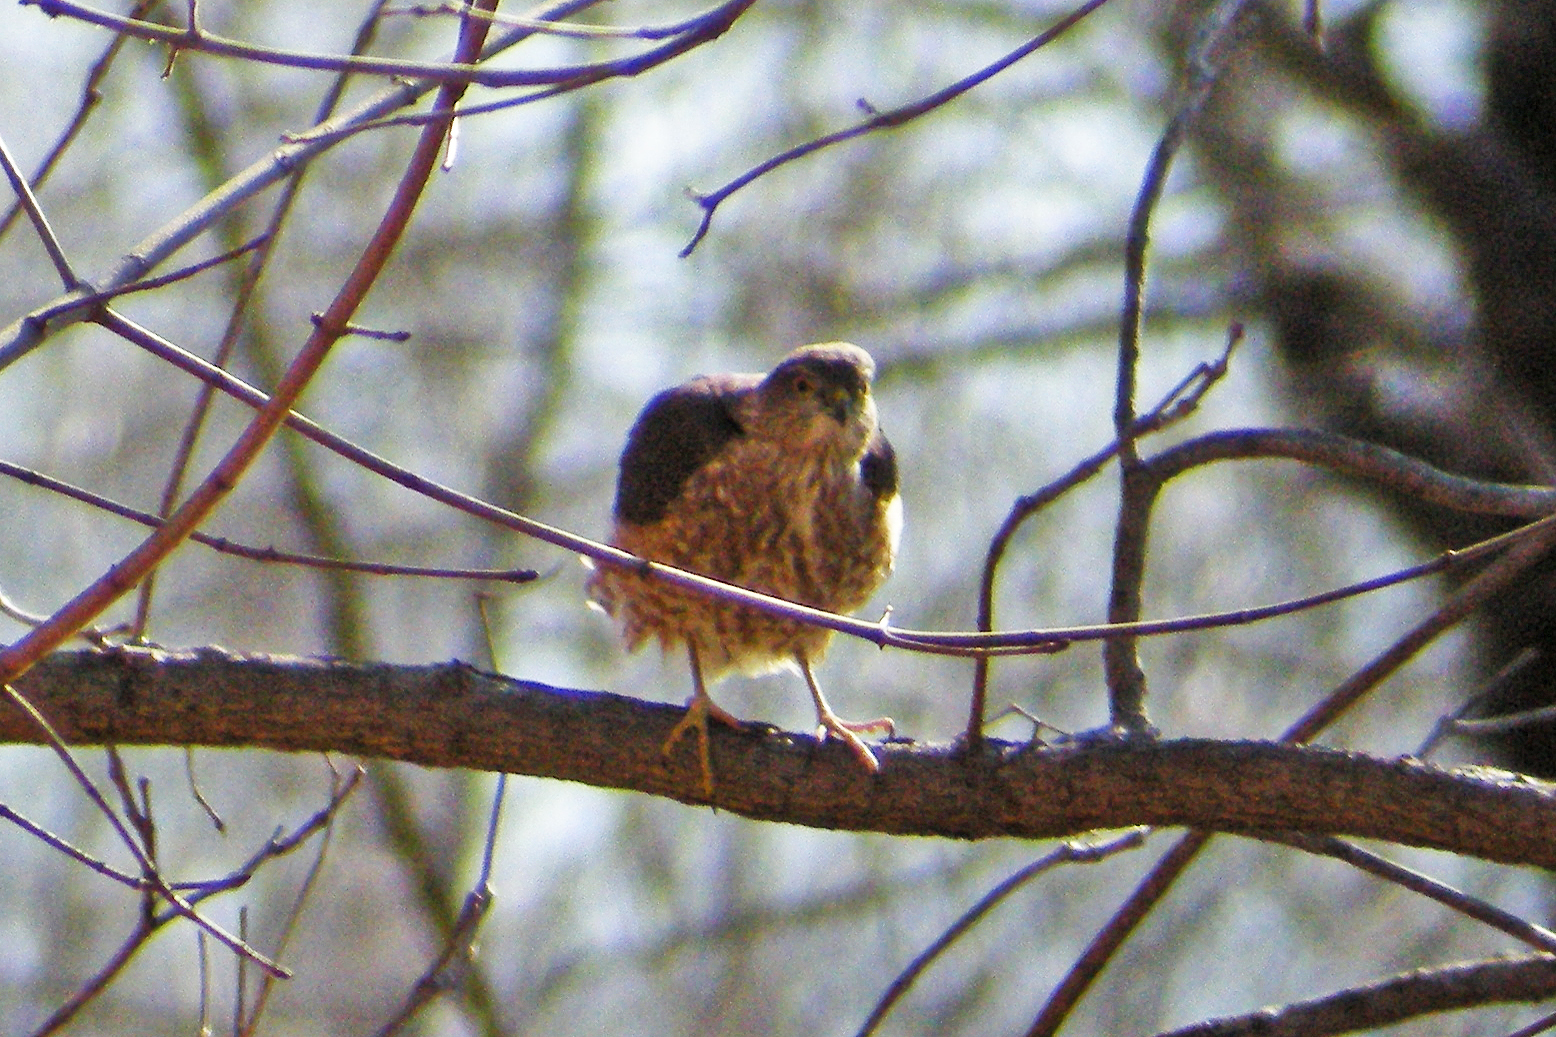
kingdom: Animalia
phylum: Chordata
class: Aves
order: Accipitriformes
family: Accipitridae
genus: Accipiter
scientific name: Accipiter striatus
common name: Sharp-shinned hawk
